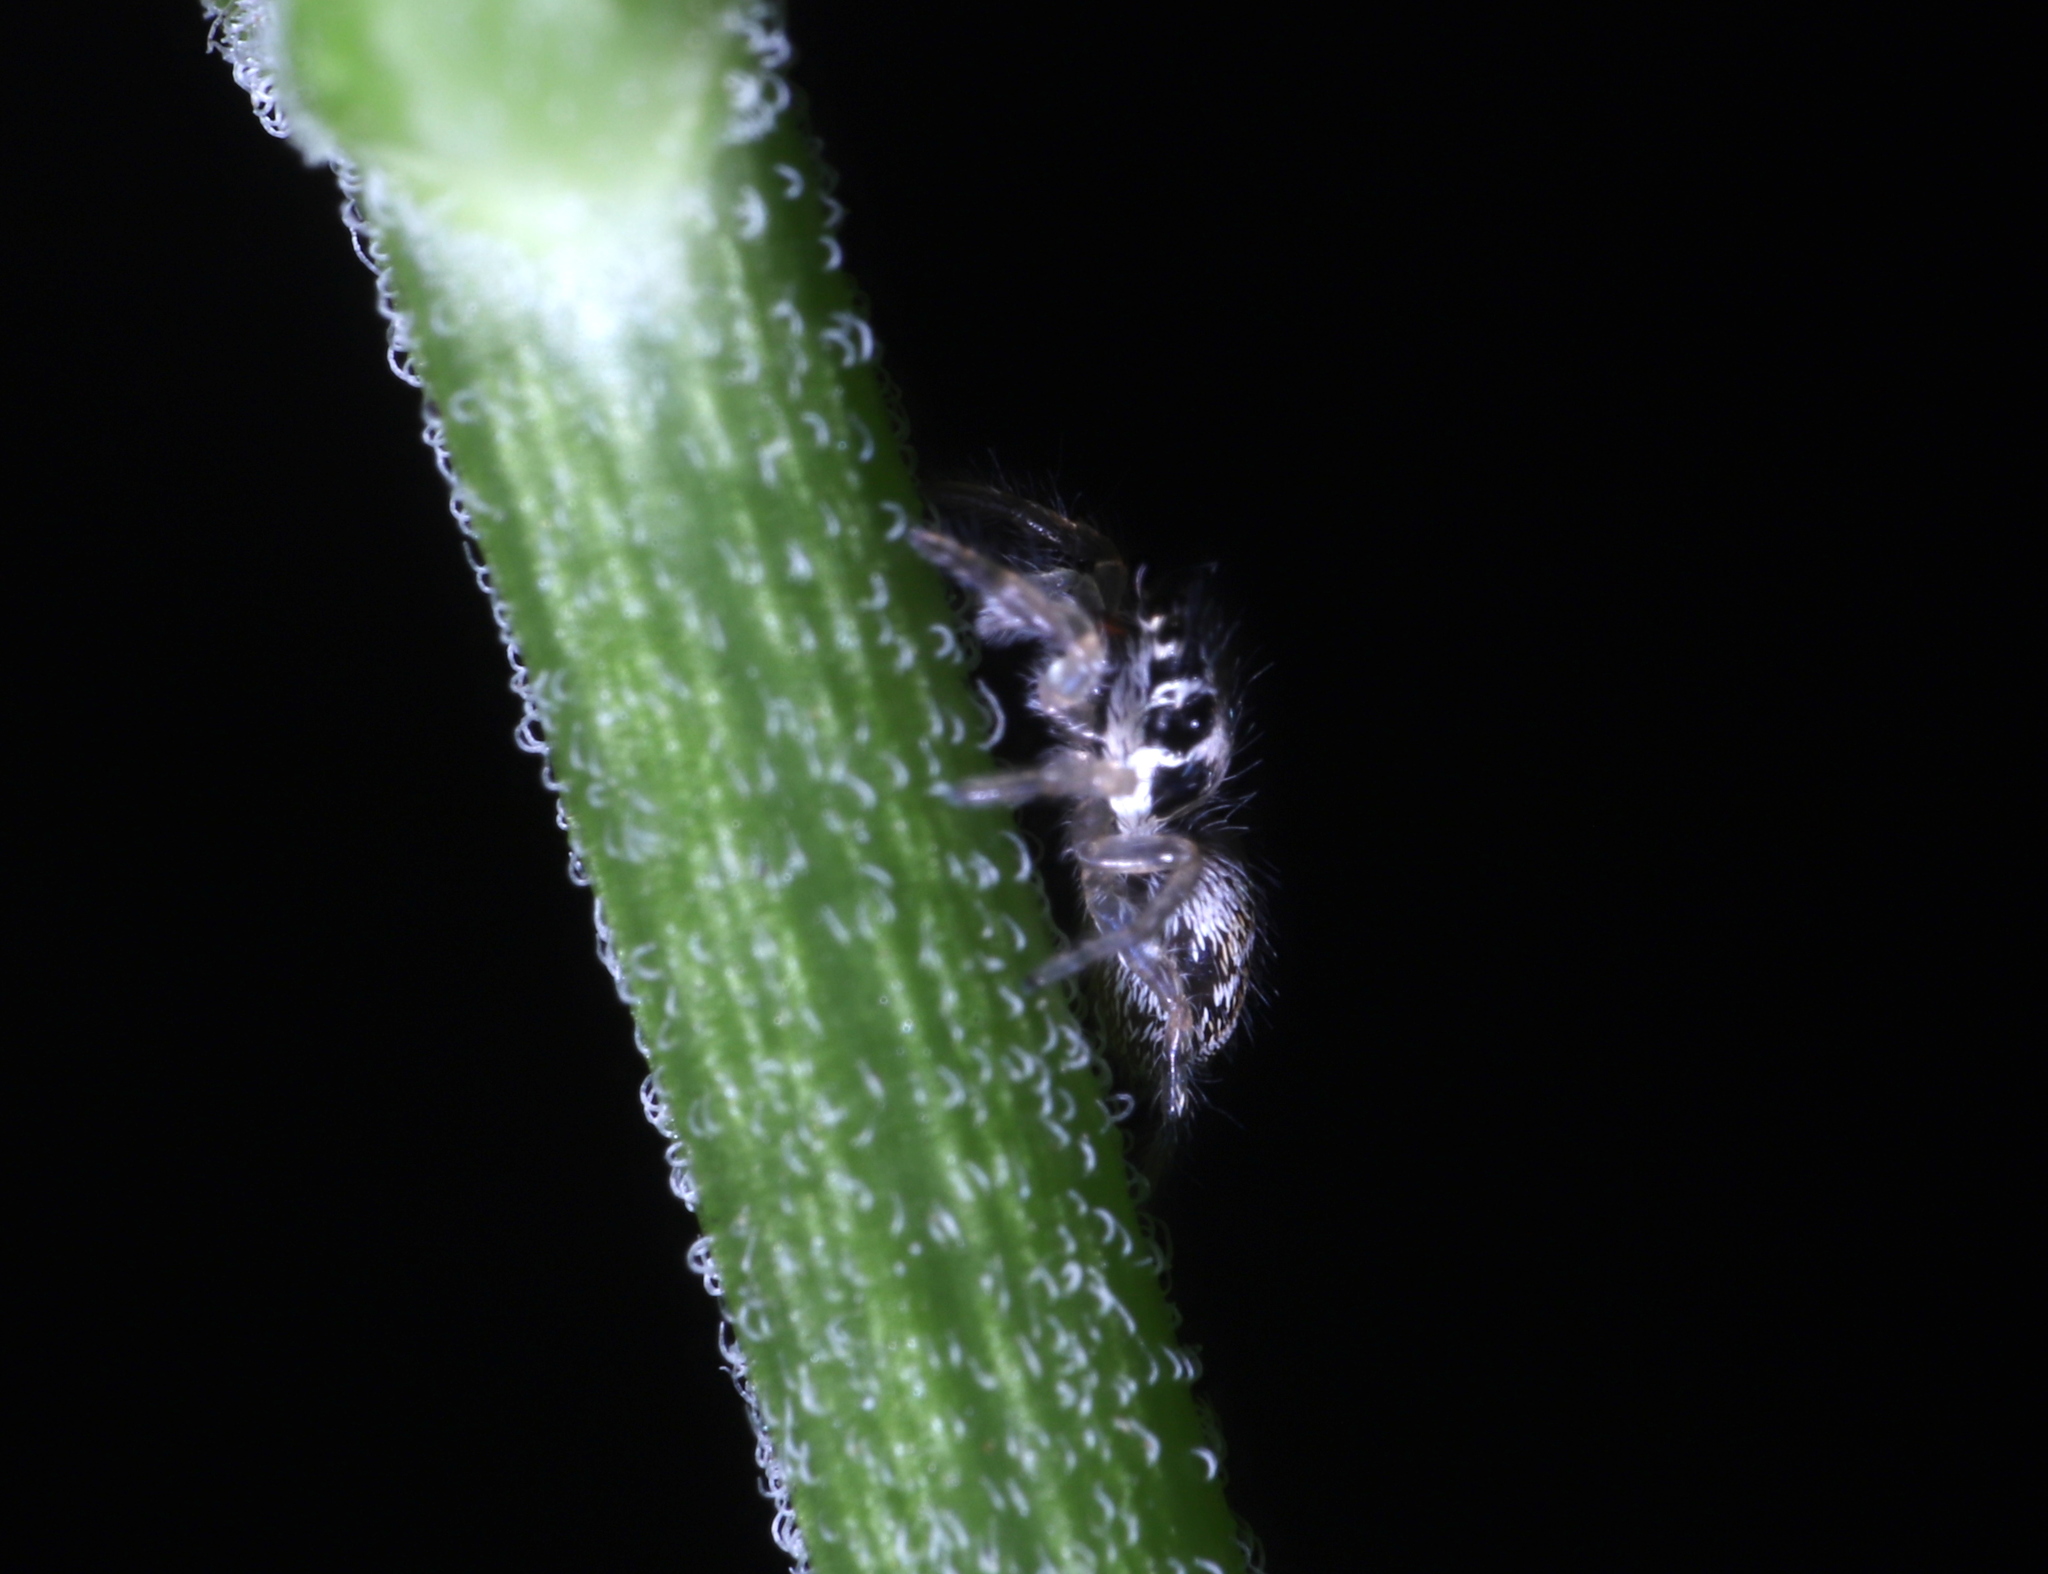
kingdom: Animalia
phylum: Arthropoda
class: Arachnida
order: Araneae
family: Salticidae
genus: Salticus
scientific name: Salticus scenicus
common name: Zebra jumper
